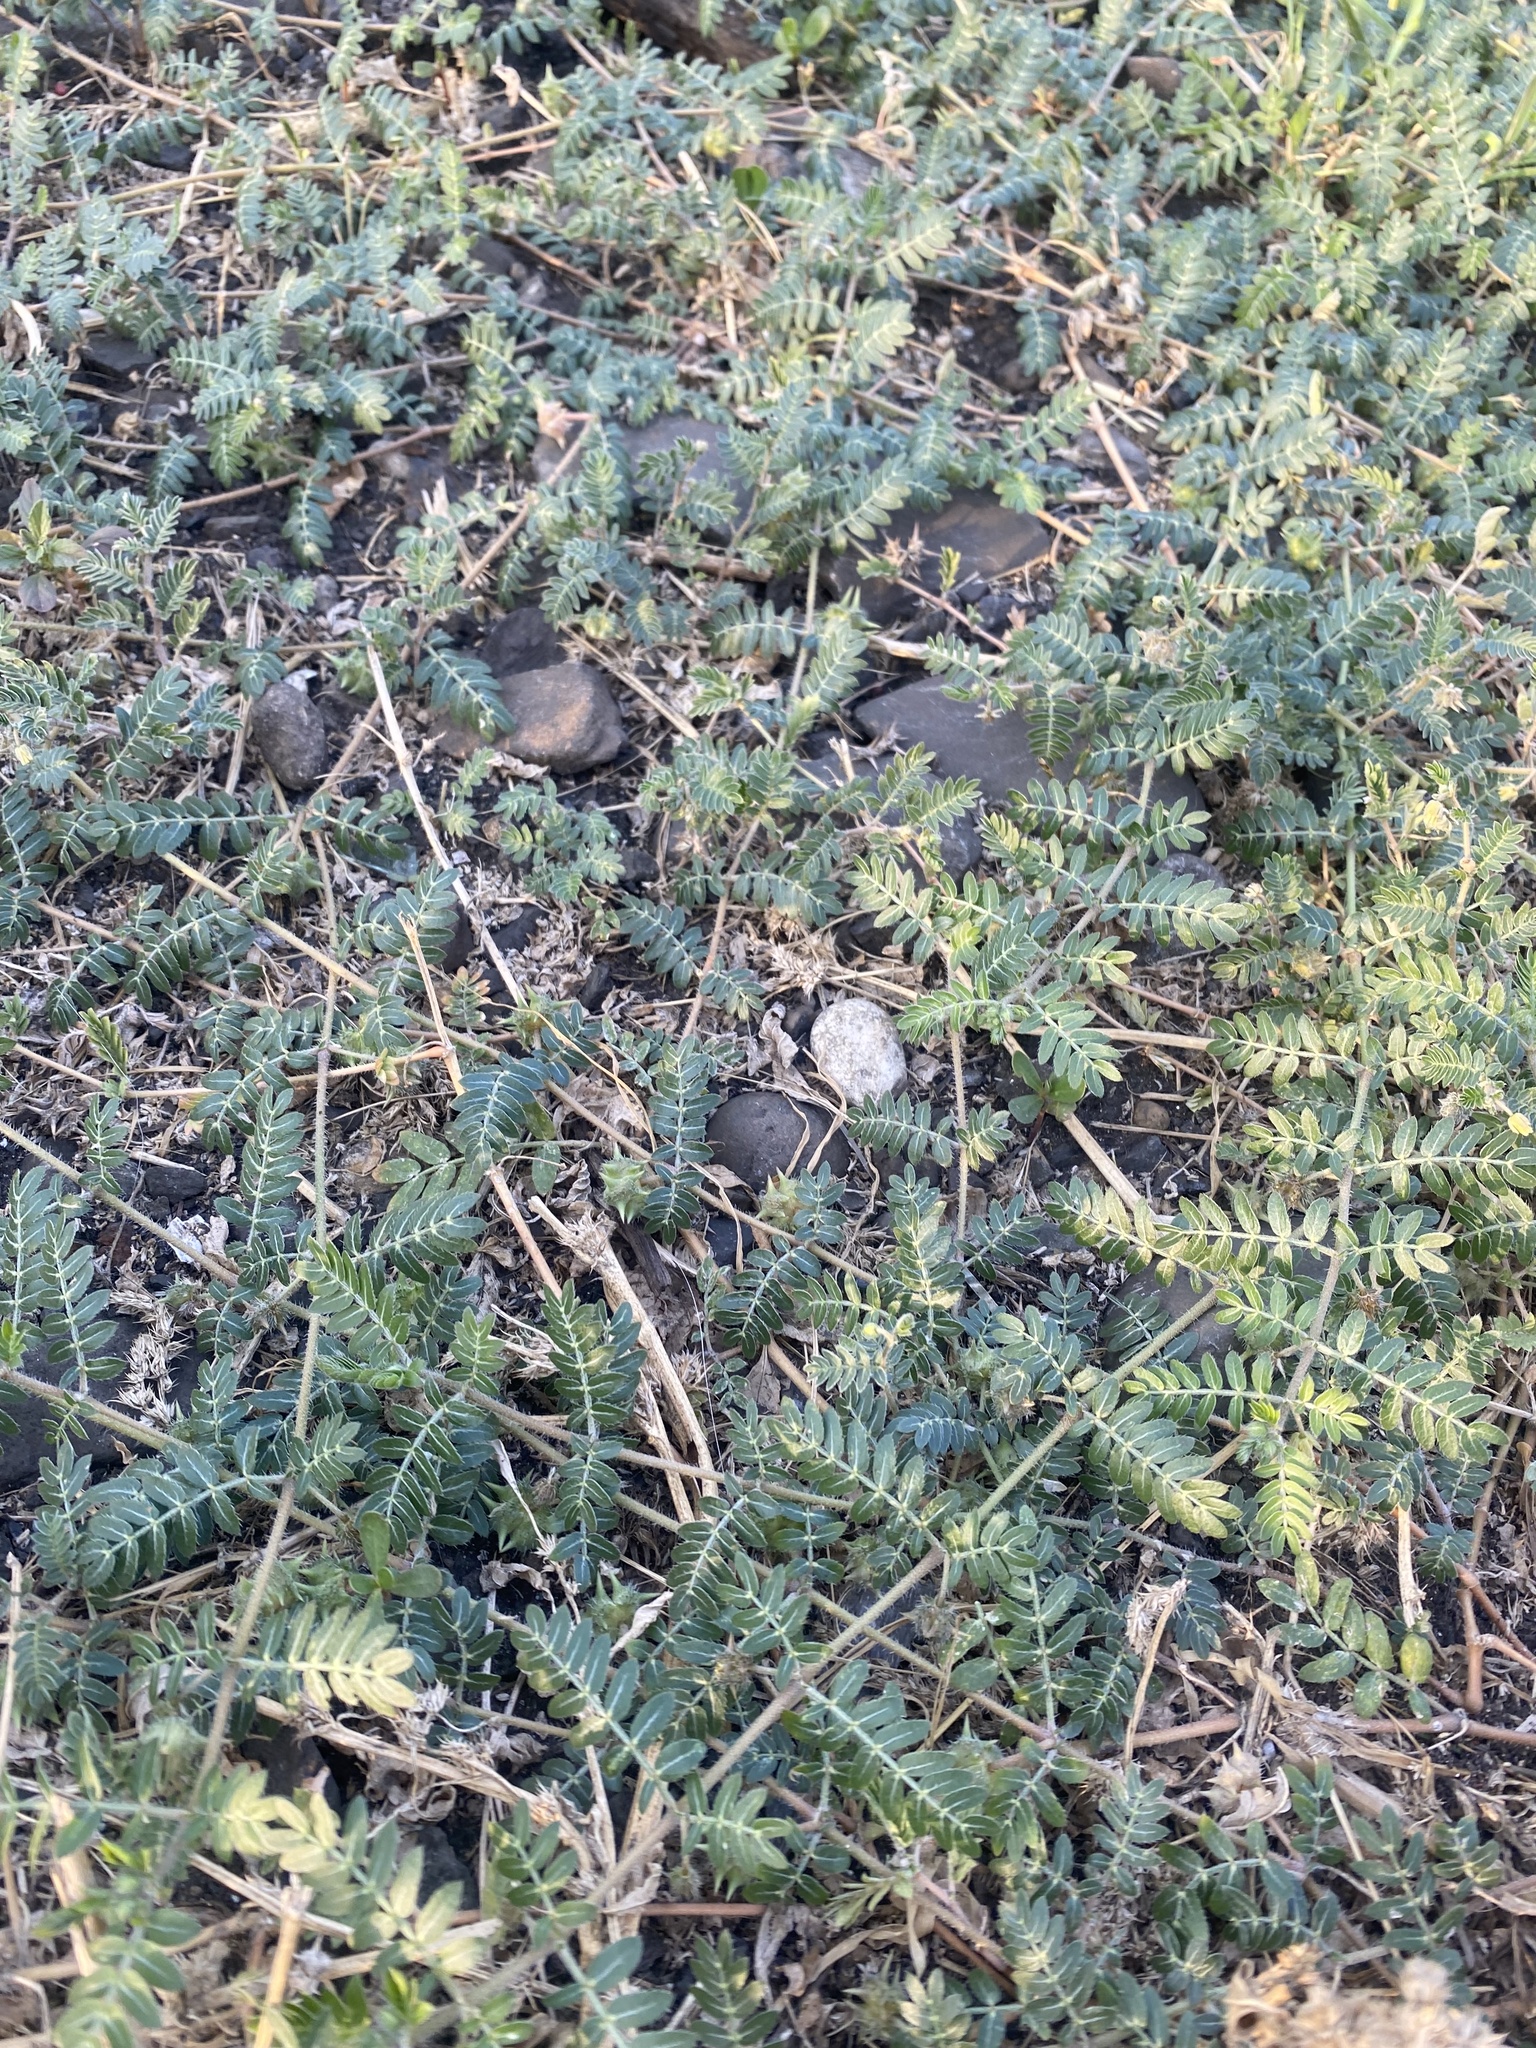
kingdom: Plantae
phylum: Tracheophyta
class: Magnoliopsida
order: Zygophyllales
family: Zygophyllaceae
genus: Tribulus
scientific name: Tribulus terrestris
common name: Puncturevine
